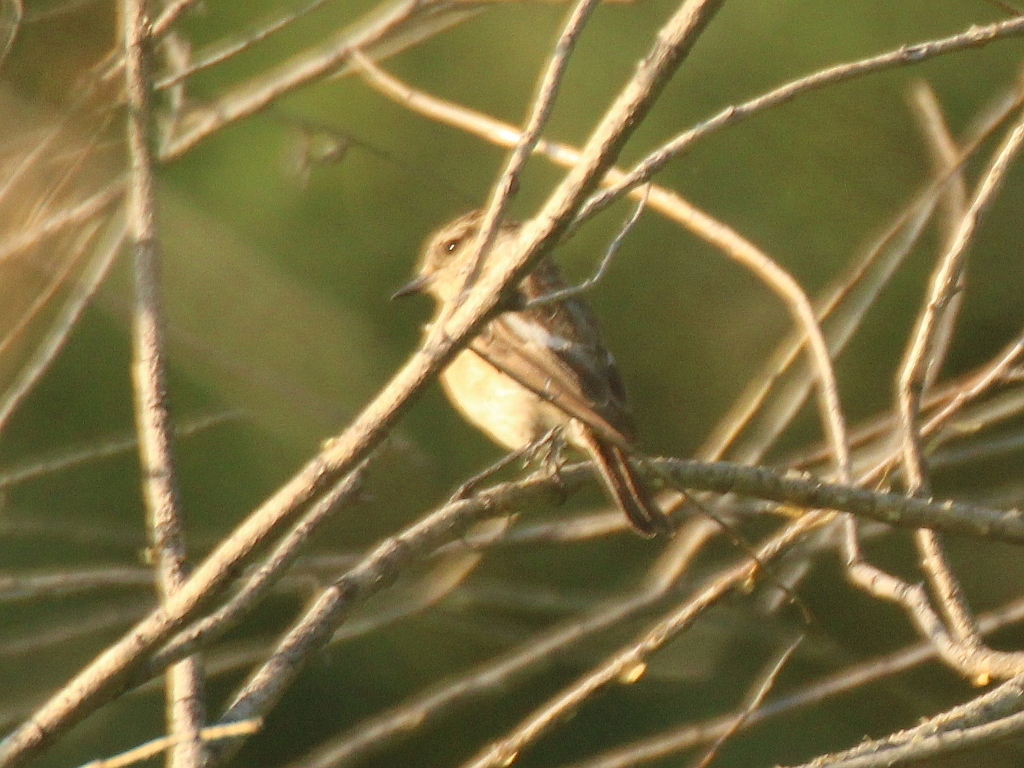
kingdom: Animalia
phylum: Chordata
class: Aves
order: Passeriformes
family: Muscicapidae
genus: Saxicola
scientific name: Saxicola maurus
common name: Siberian stonechat
